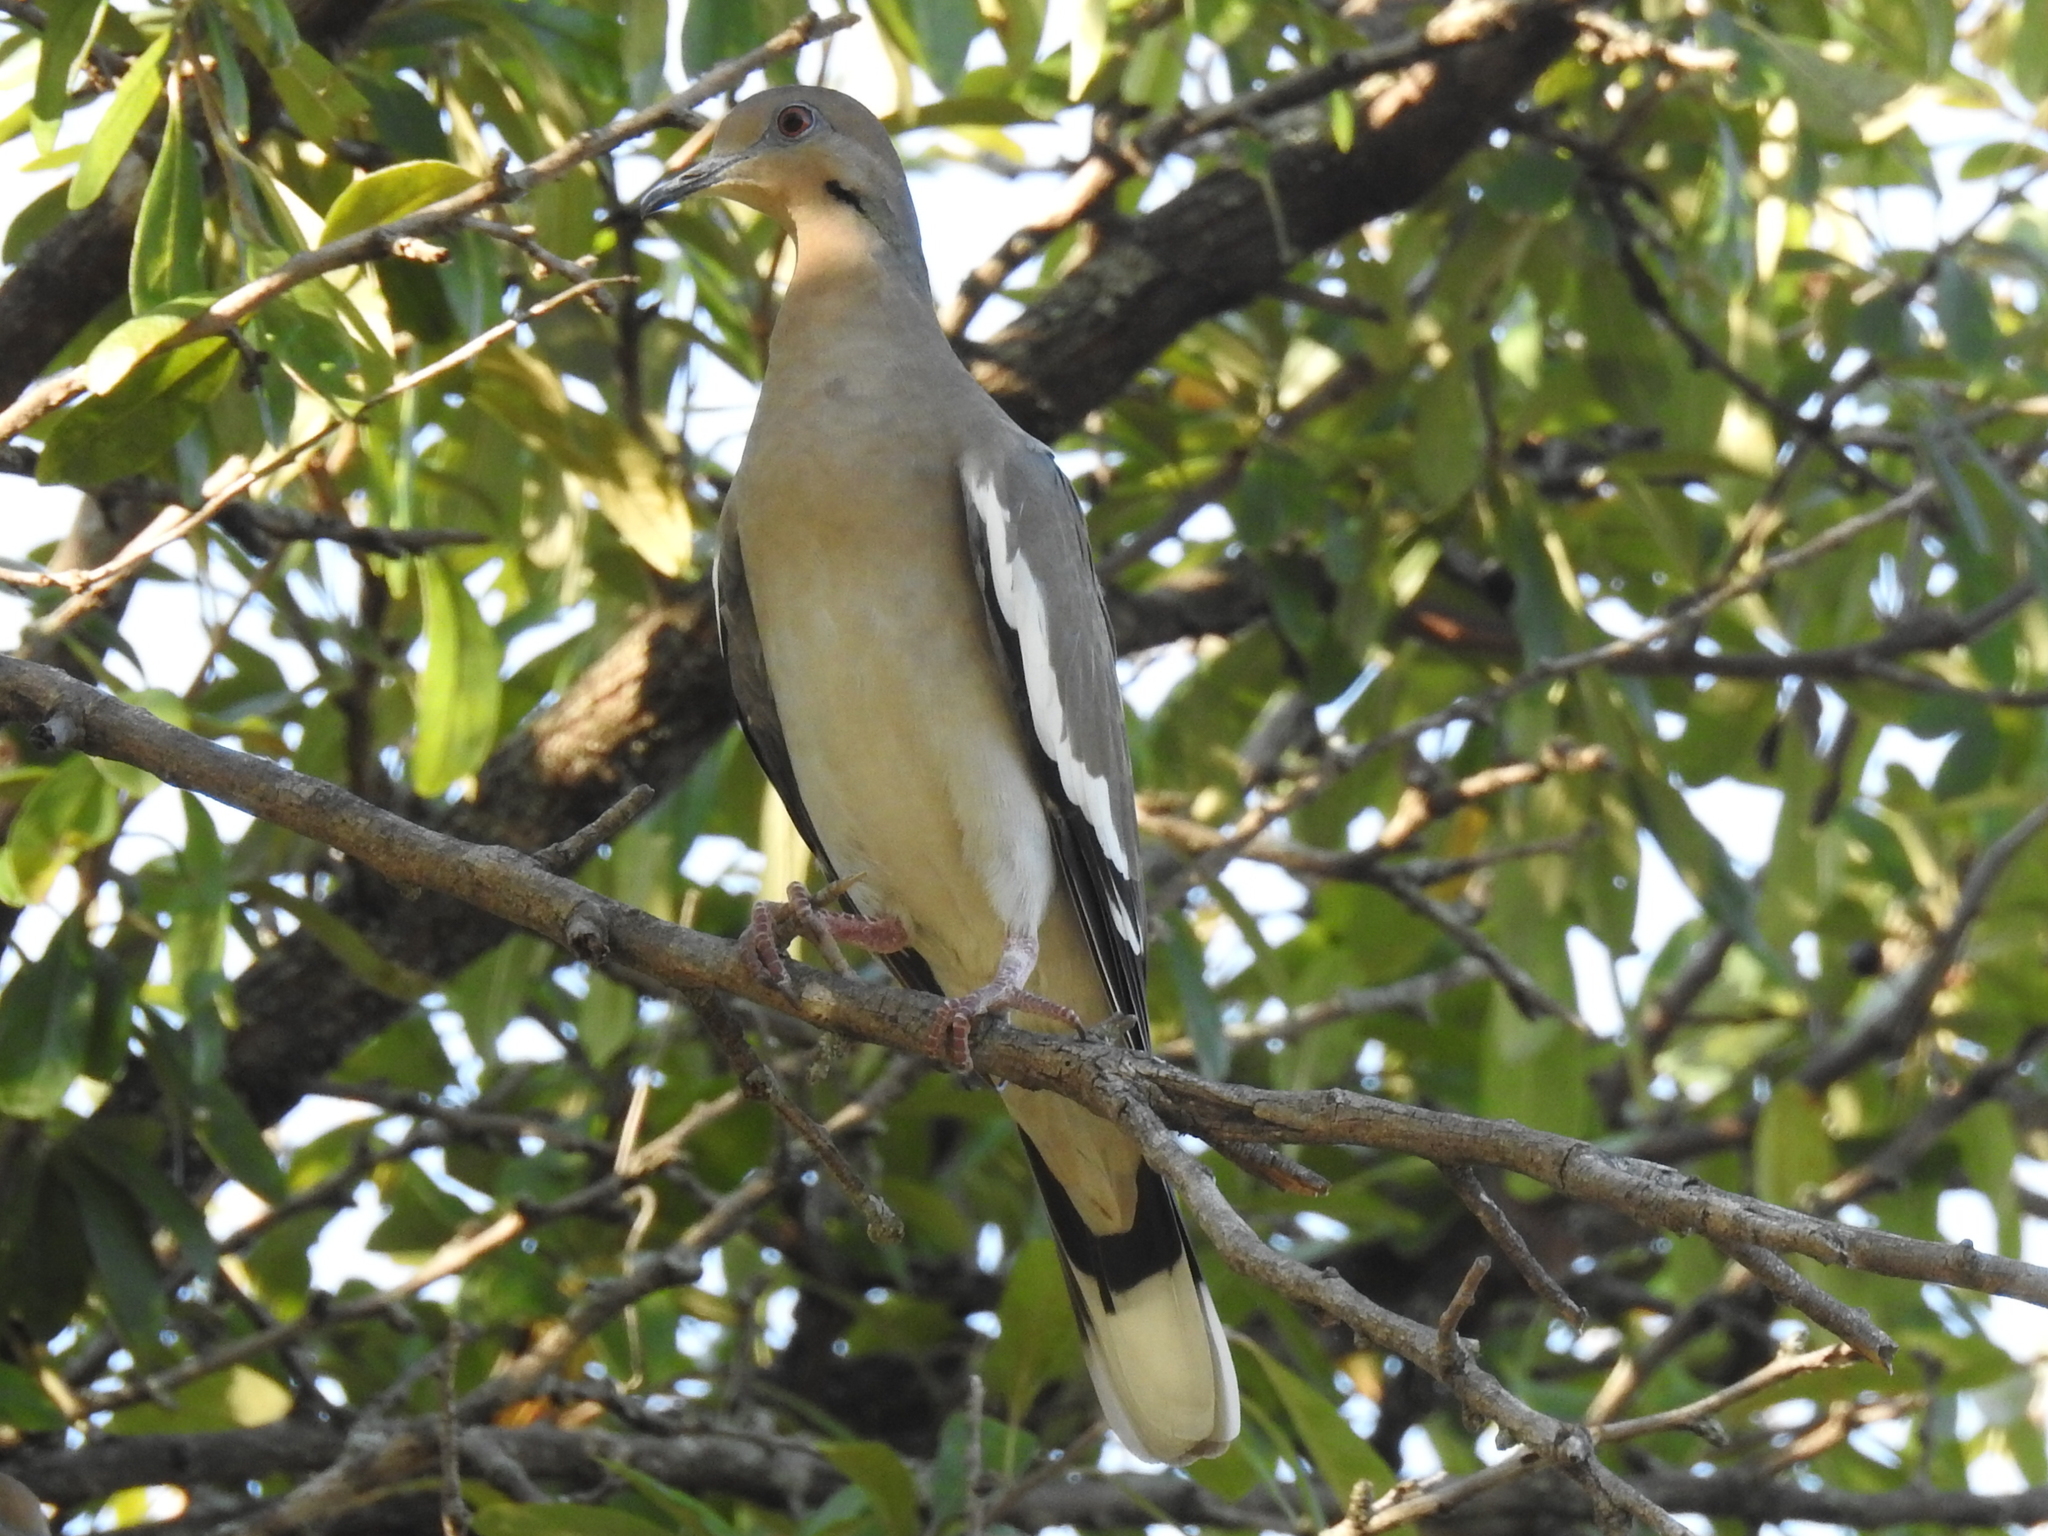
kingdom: Animalia
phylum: Chordata
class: Aves
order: Columbiformes
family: Columbidae
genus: Zenaida
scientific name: Zenaida asiatica
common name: White-winged dove
